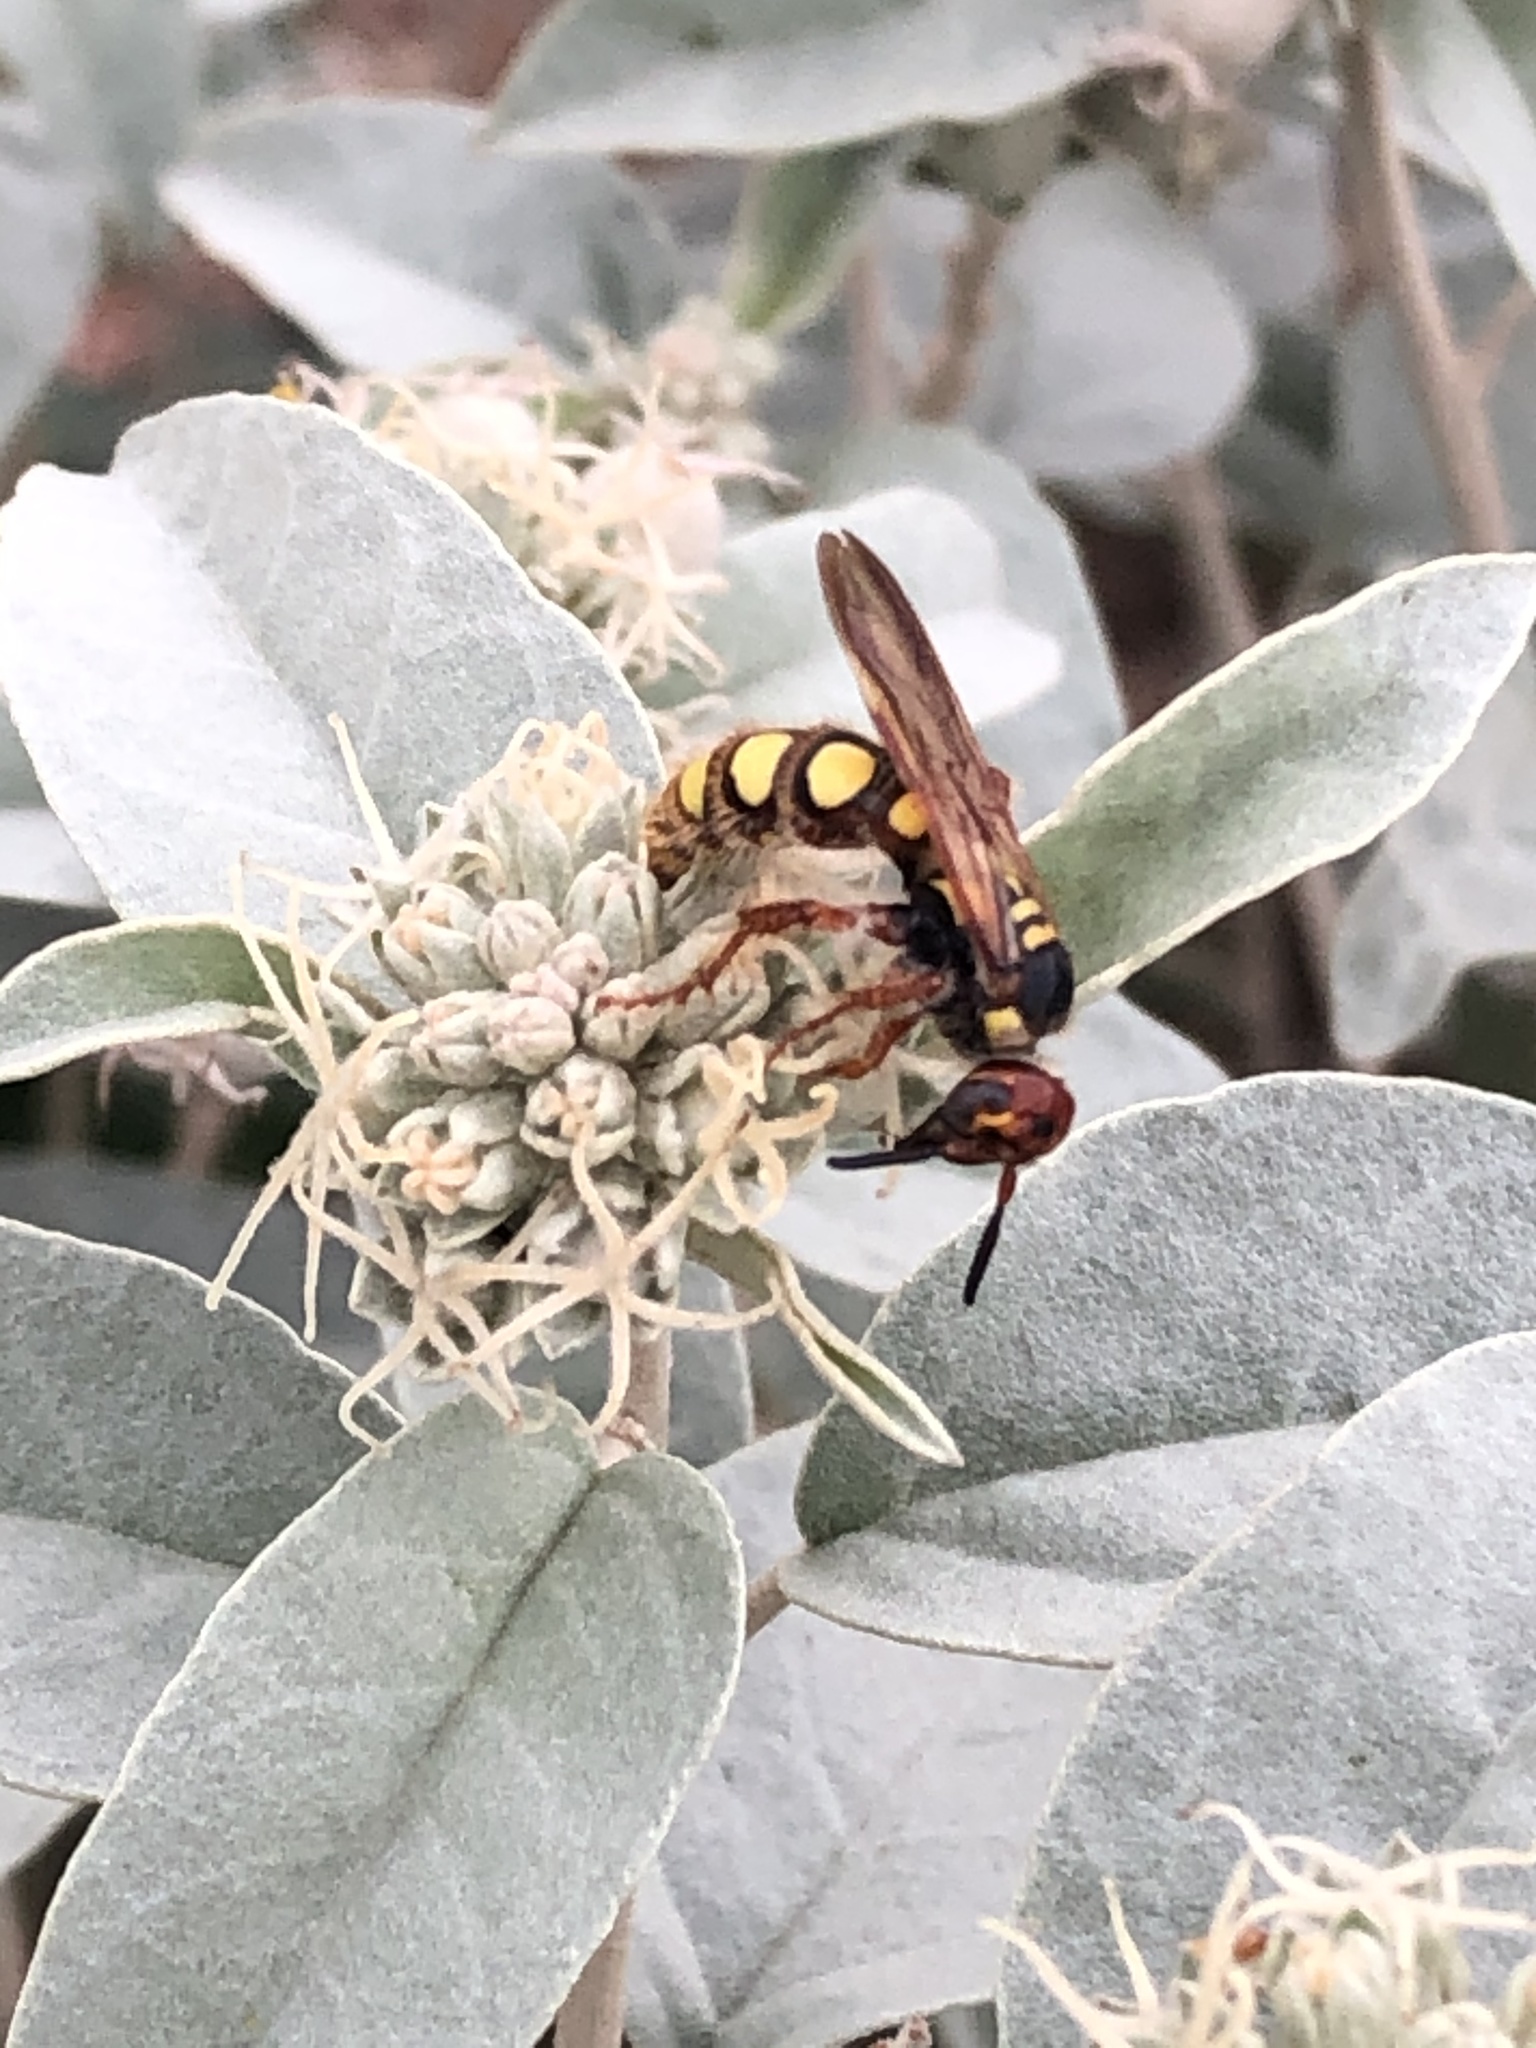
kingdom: Animalia
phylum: Arthropoda
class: Insecta
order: Hymenoptera
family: Scoliidae
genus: Colpa
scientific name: Colpa octomaculata
